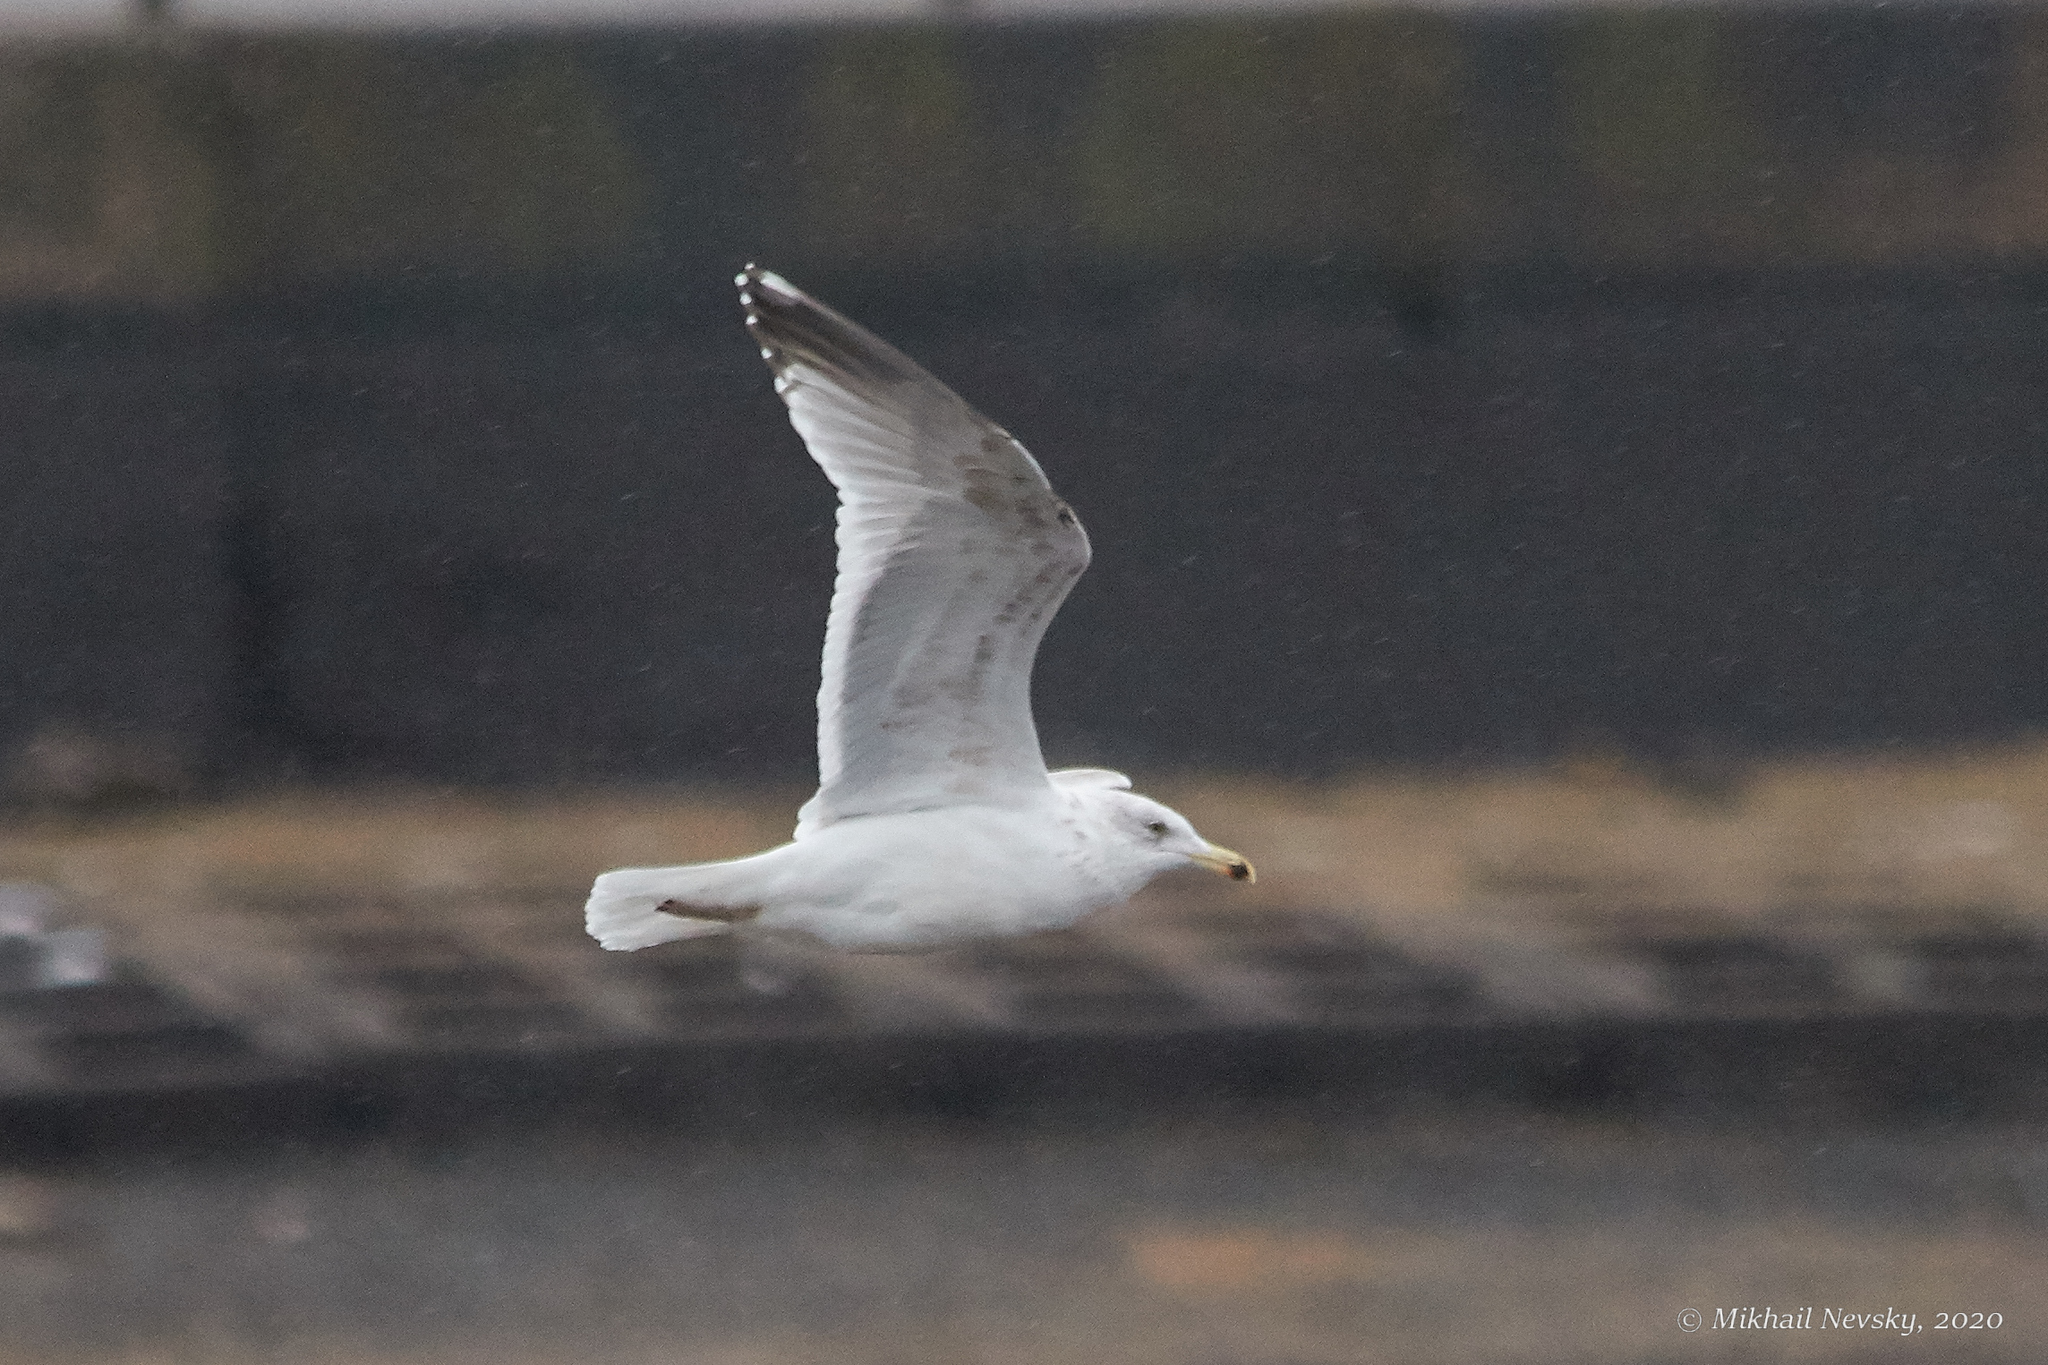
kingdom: Animalia
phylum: Chordata
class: Aves
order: Charadriiformes
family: Laridae
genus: Larus
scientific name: Larus argentatus
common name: Herring gull
